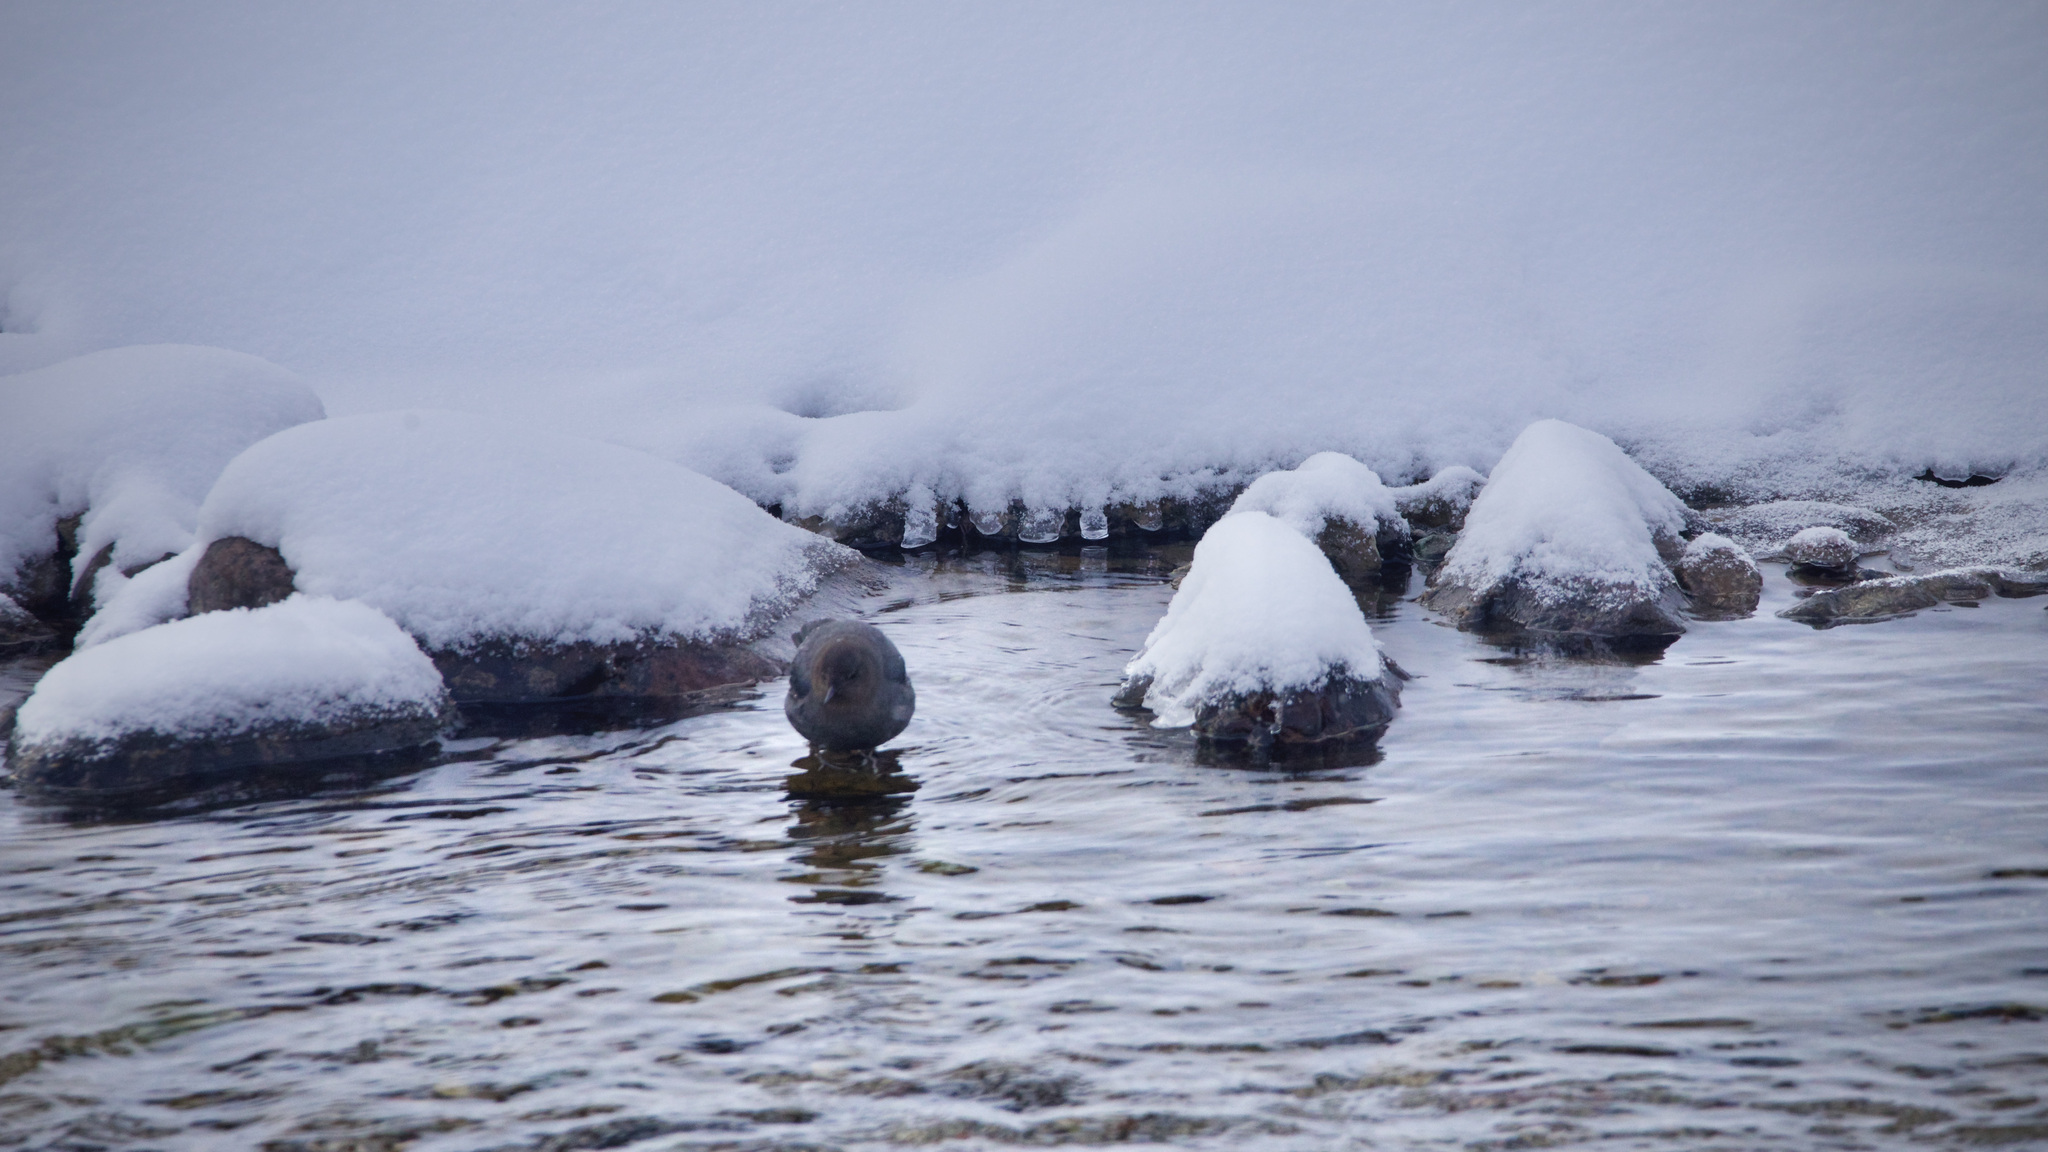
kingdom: Animalia
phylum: Chordata
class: Aves
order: Passeriformes
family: Cinclidae
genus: Cinclus
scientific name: Cinclus mexicanus
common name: American dipper
